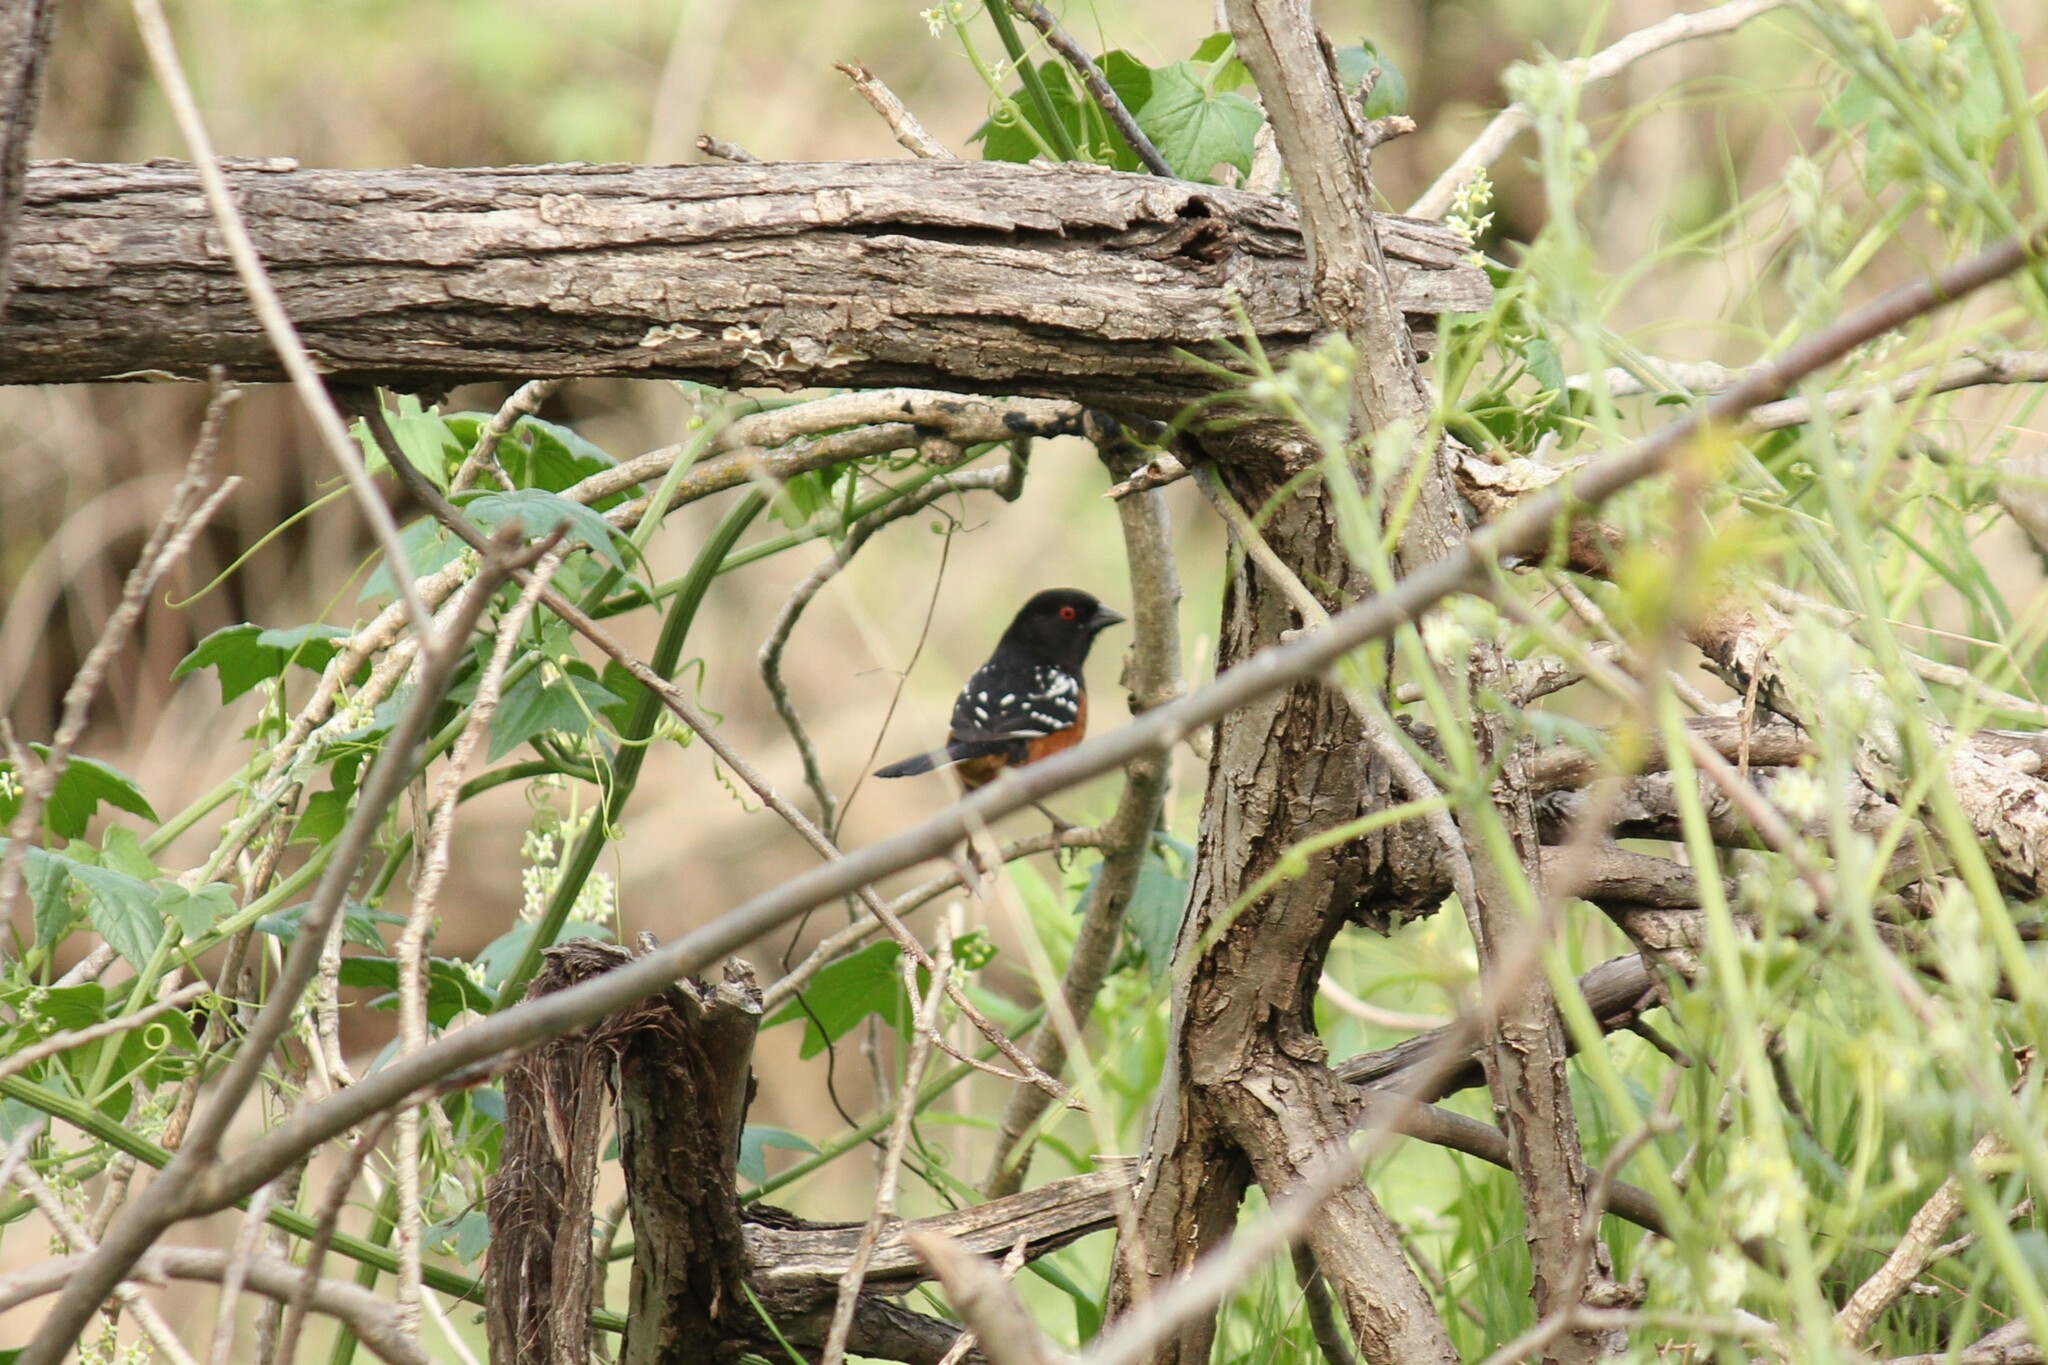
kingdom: Animalia
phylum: Chordata
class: Aves
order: Passeriformes
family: Passerellidae
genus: Pipilo
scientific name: Pipilo maculatus
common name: Spotted towhee
